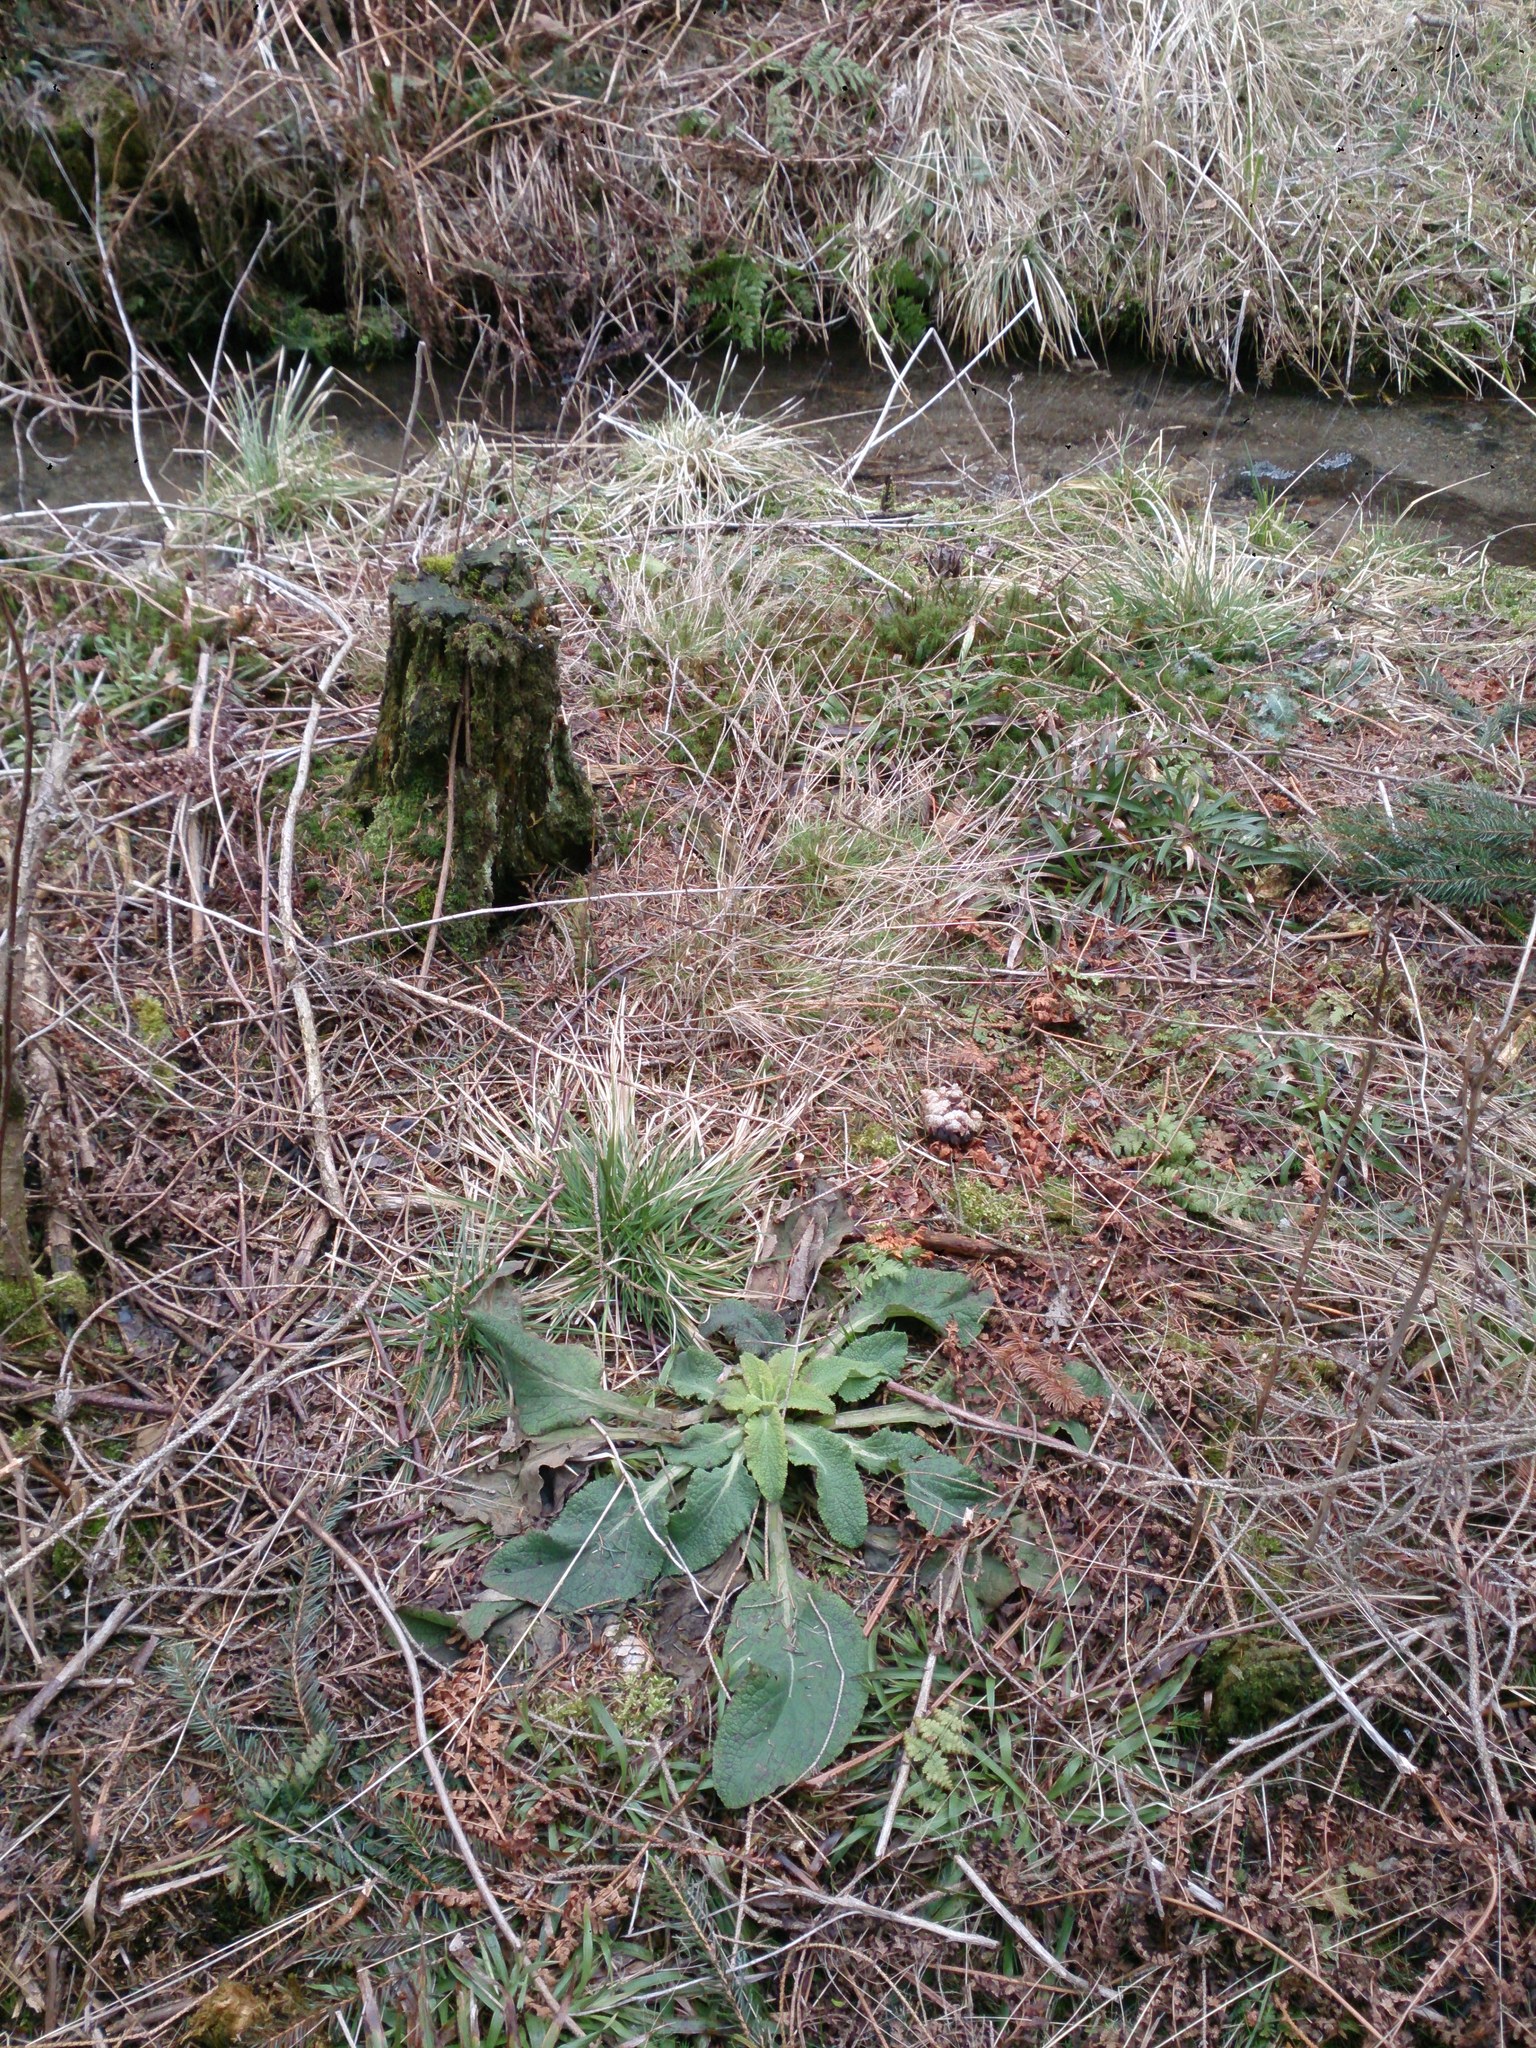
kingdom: Plantae
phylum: Tracheophyta
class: Magnoliopsida
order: Lamiales
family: Plantaginaceae
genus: Digitalis
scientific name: Digitalis purpurea
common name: Foxglove
